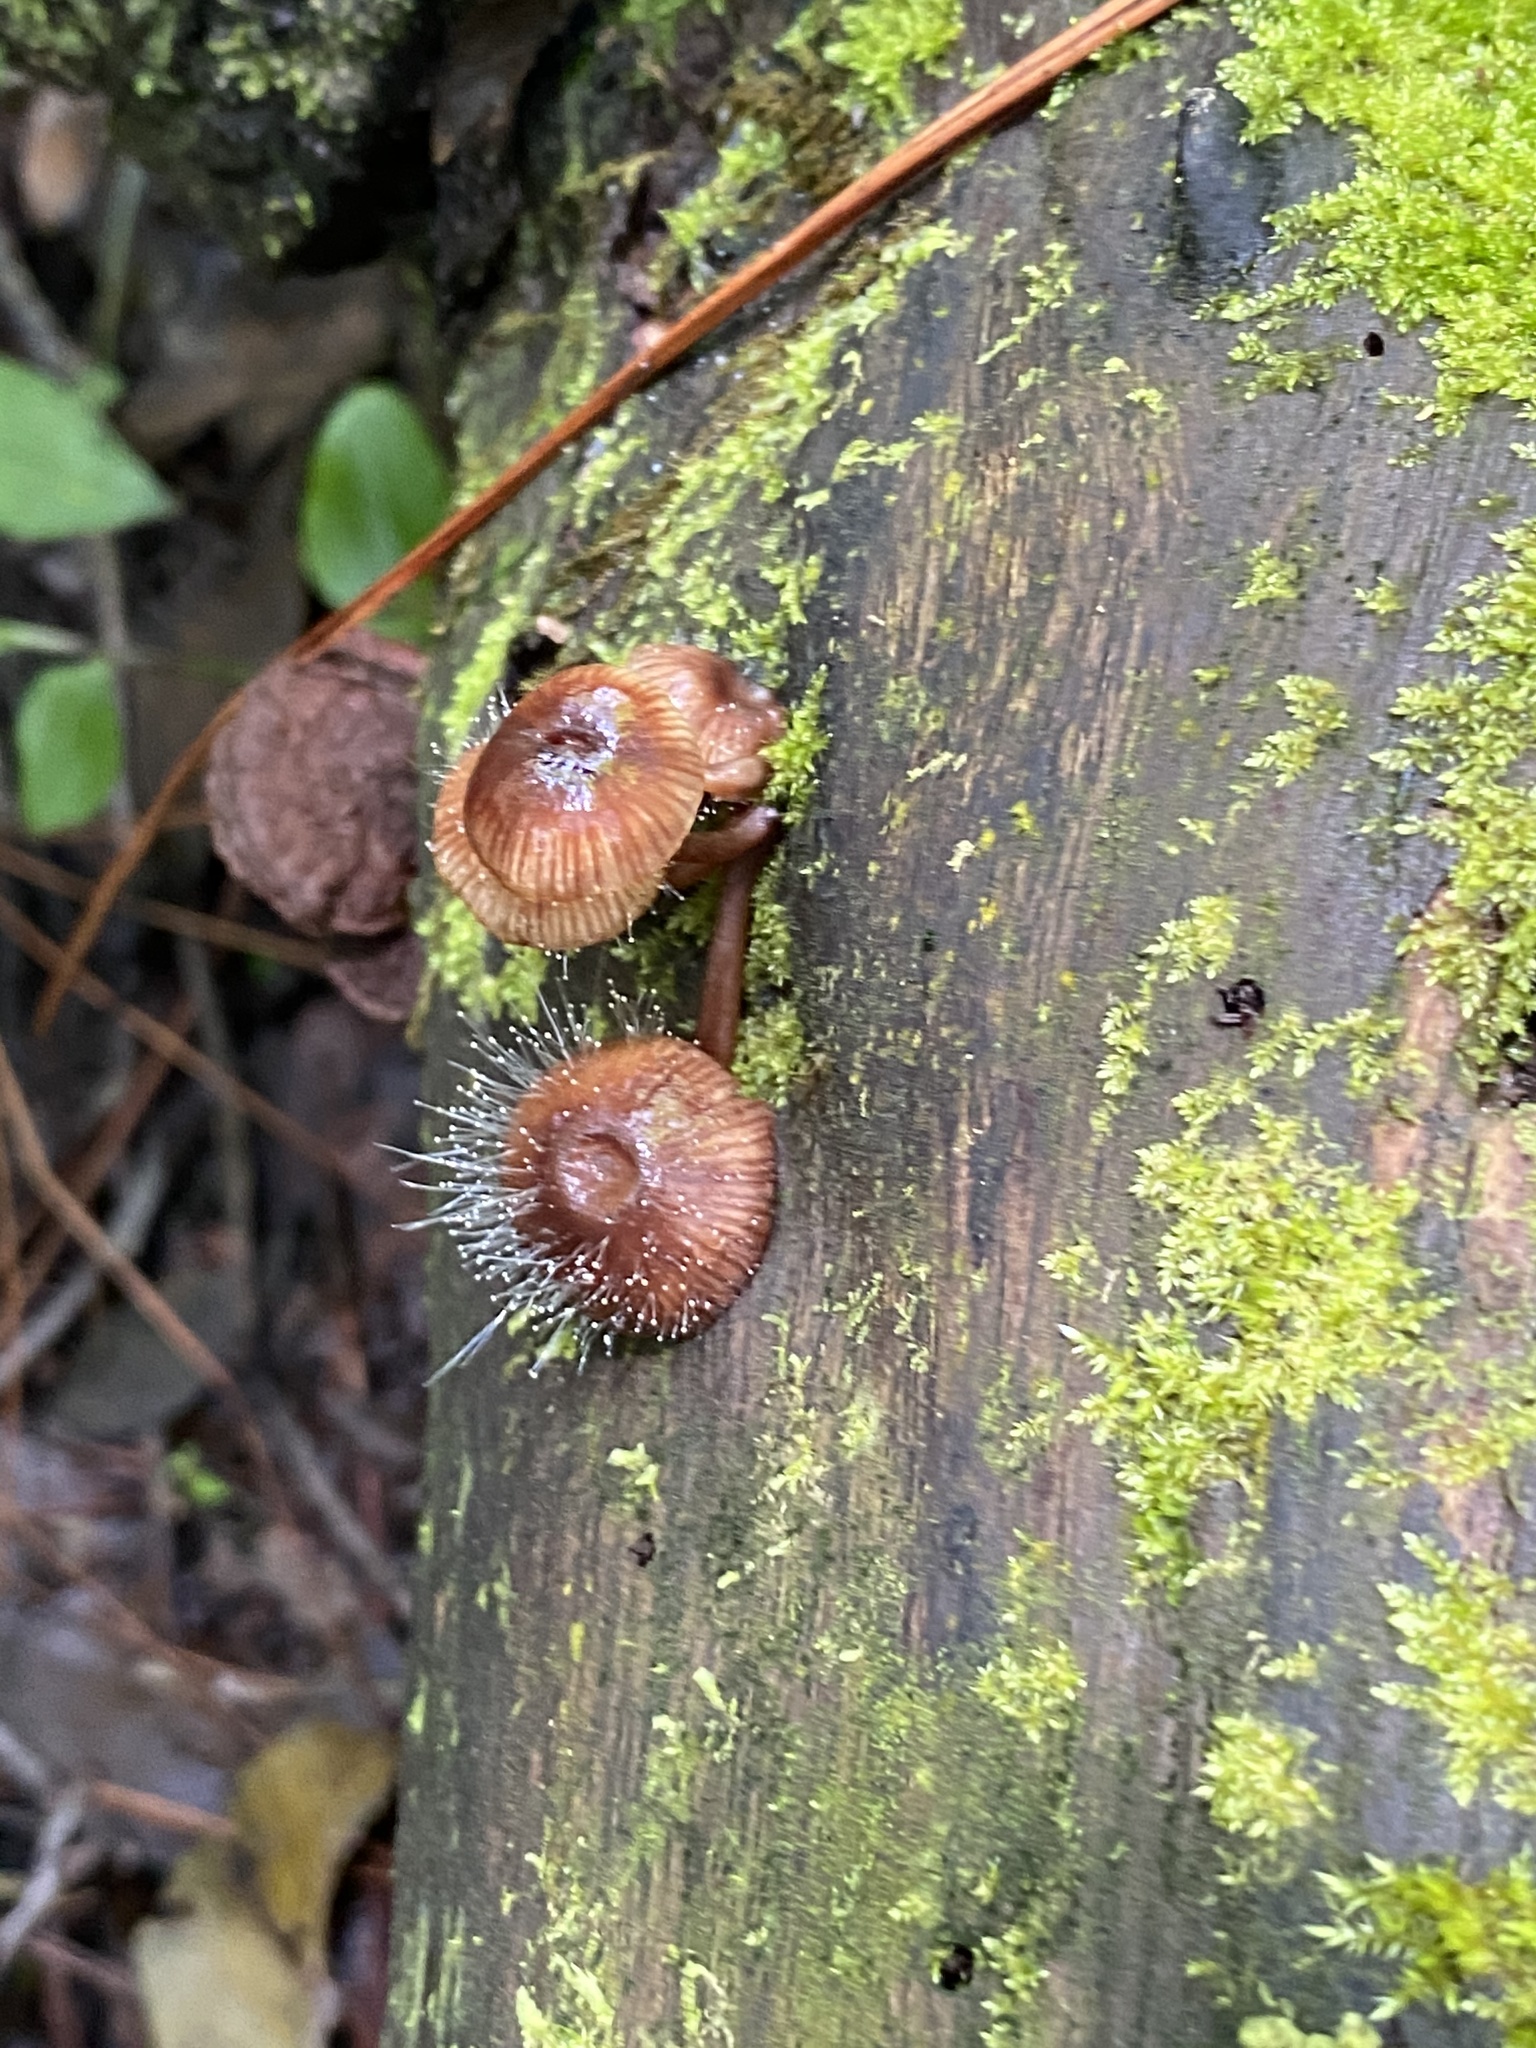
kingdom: Fungi
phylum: Mucoromycota
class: Mucoromycetes
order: Mucorales
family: Phycomycetaceae
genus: Spinellus
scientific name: Spinellus fusiger
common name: Bonnet mould
